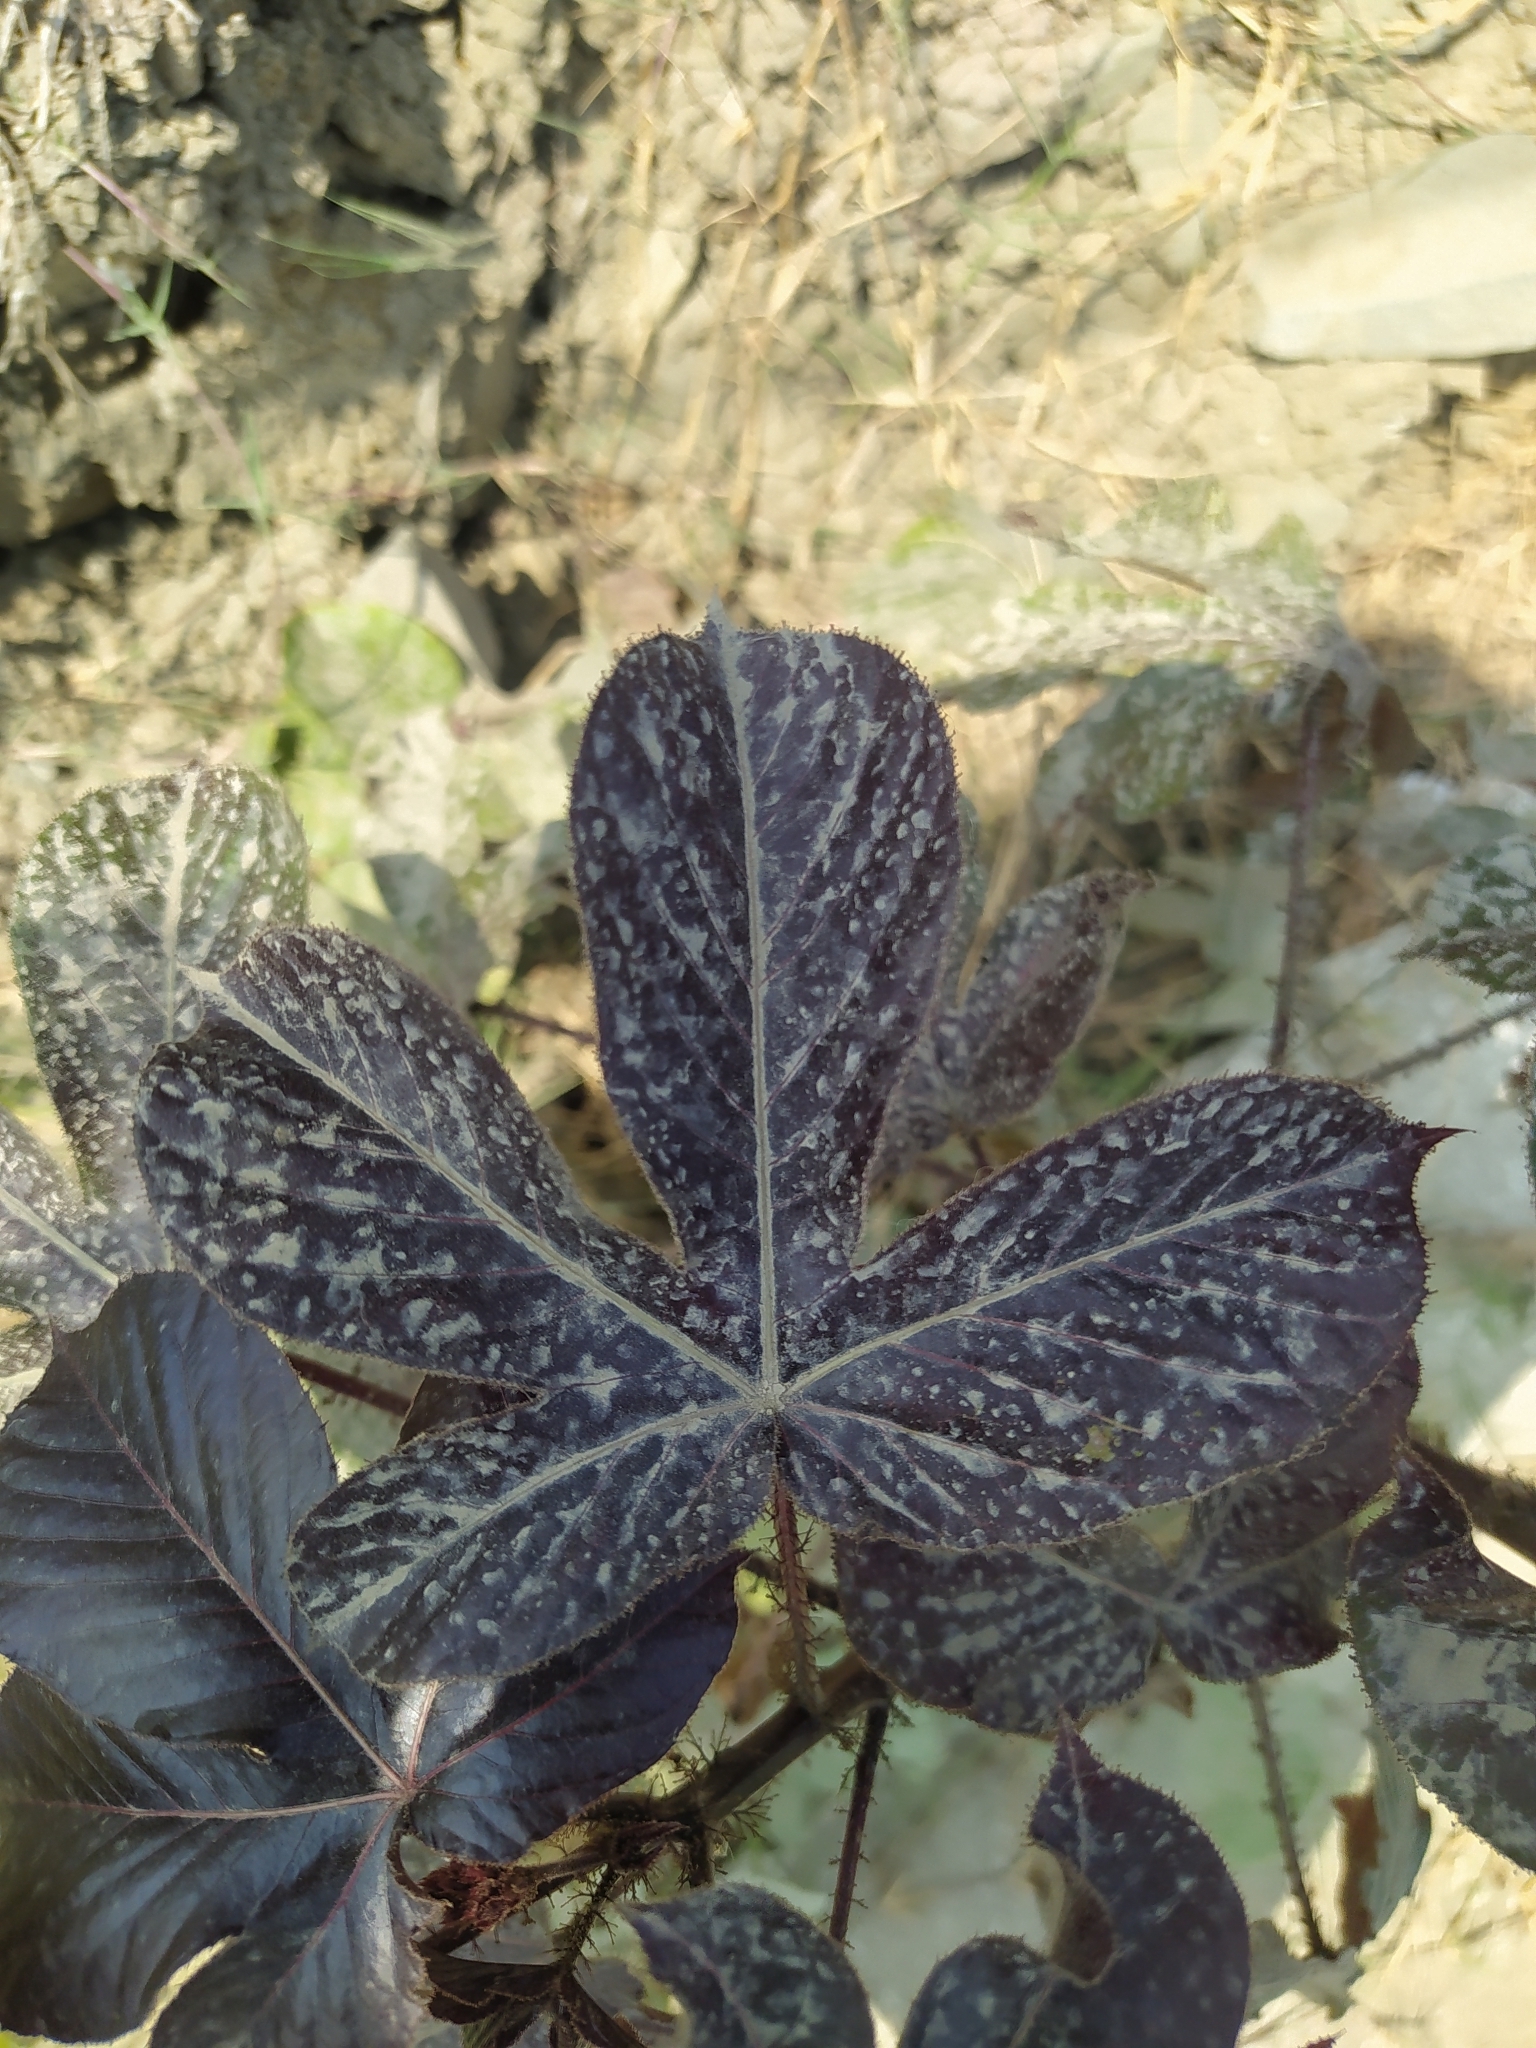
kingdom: Plantae
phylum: Tracheophyta
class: Magnoliopsida
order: Malpighiales
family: Euphorbiaceae
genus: Jatropha
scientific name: Jatropha gossypiifolia
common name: Bellyache bush
